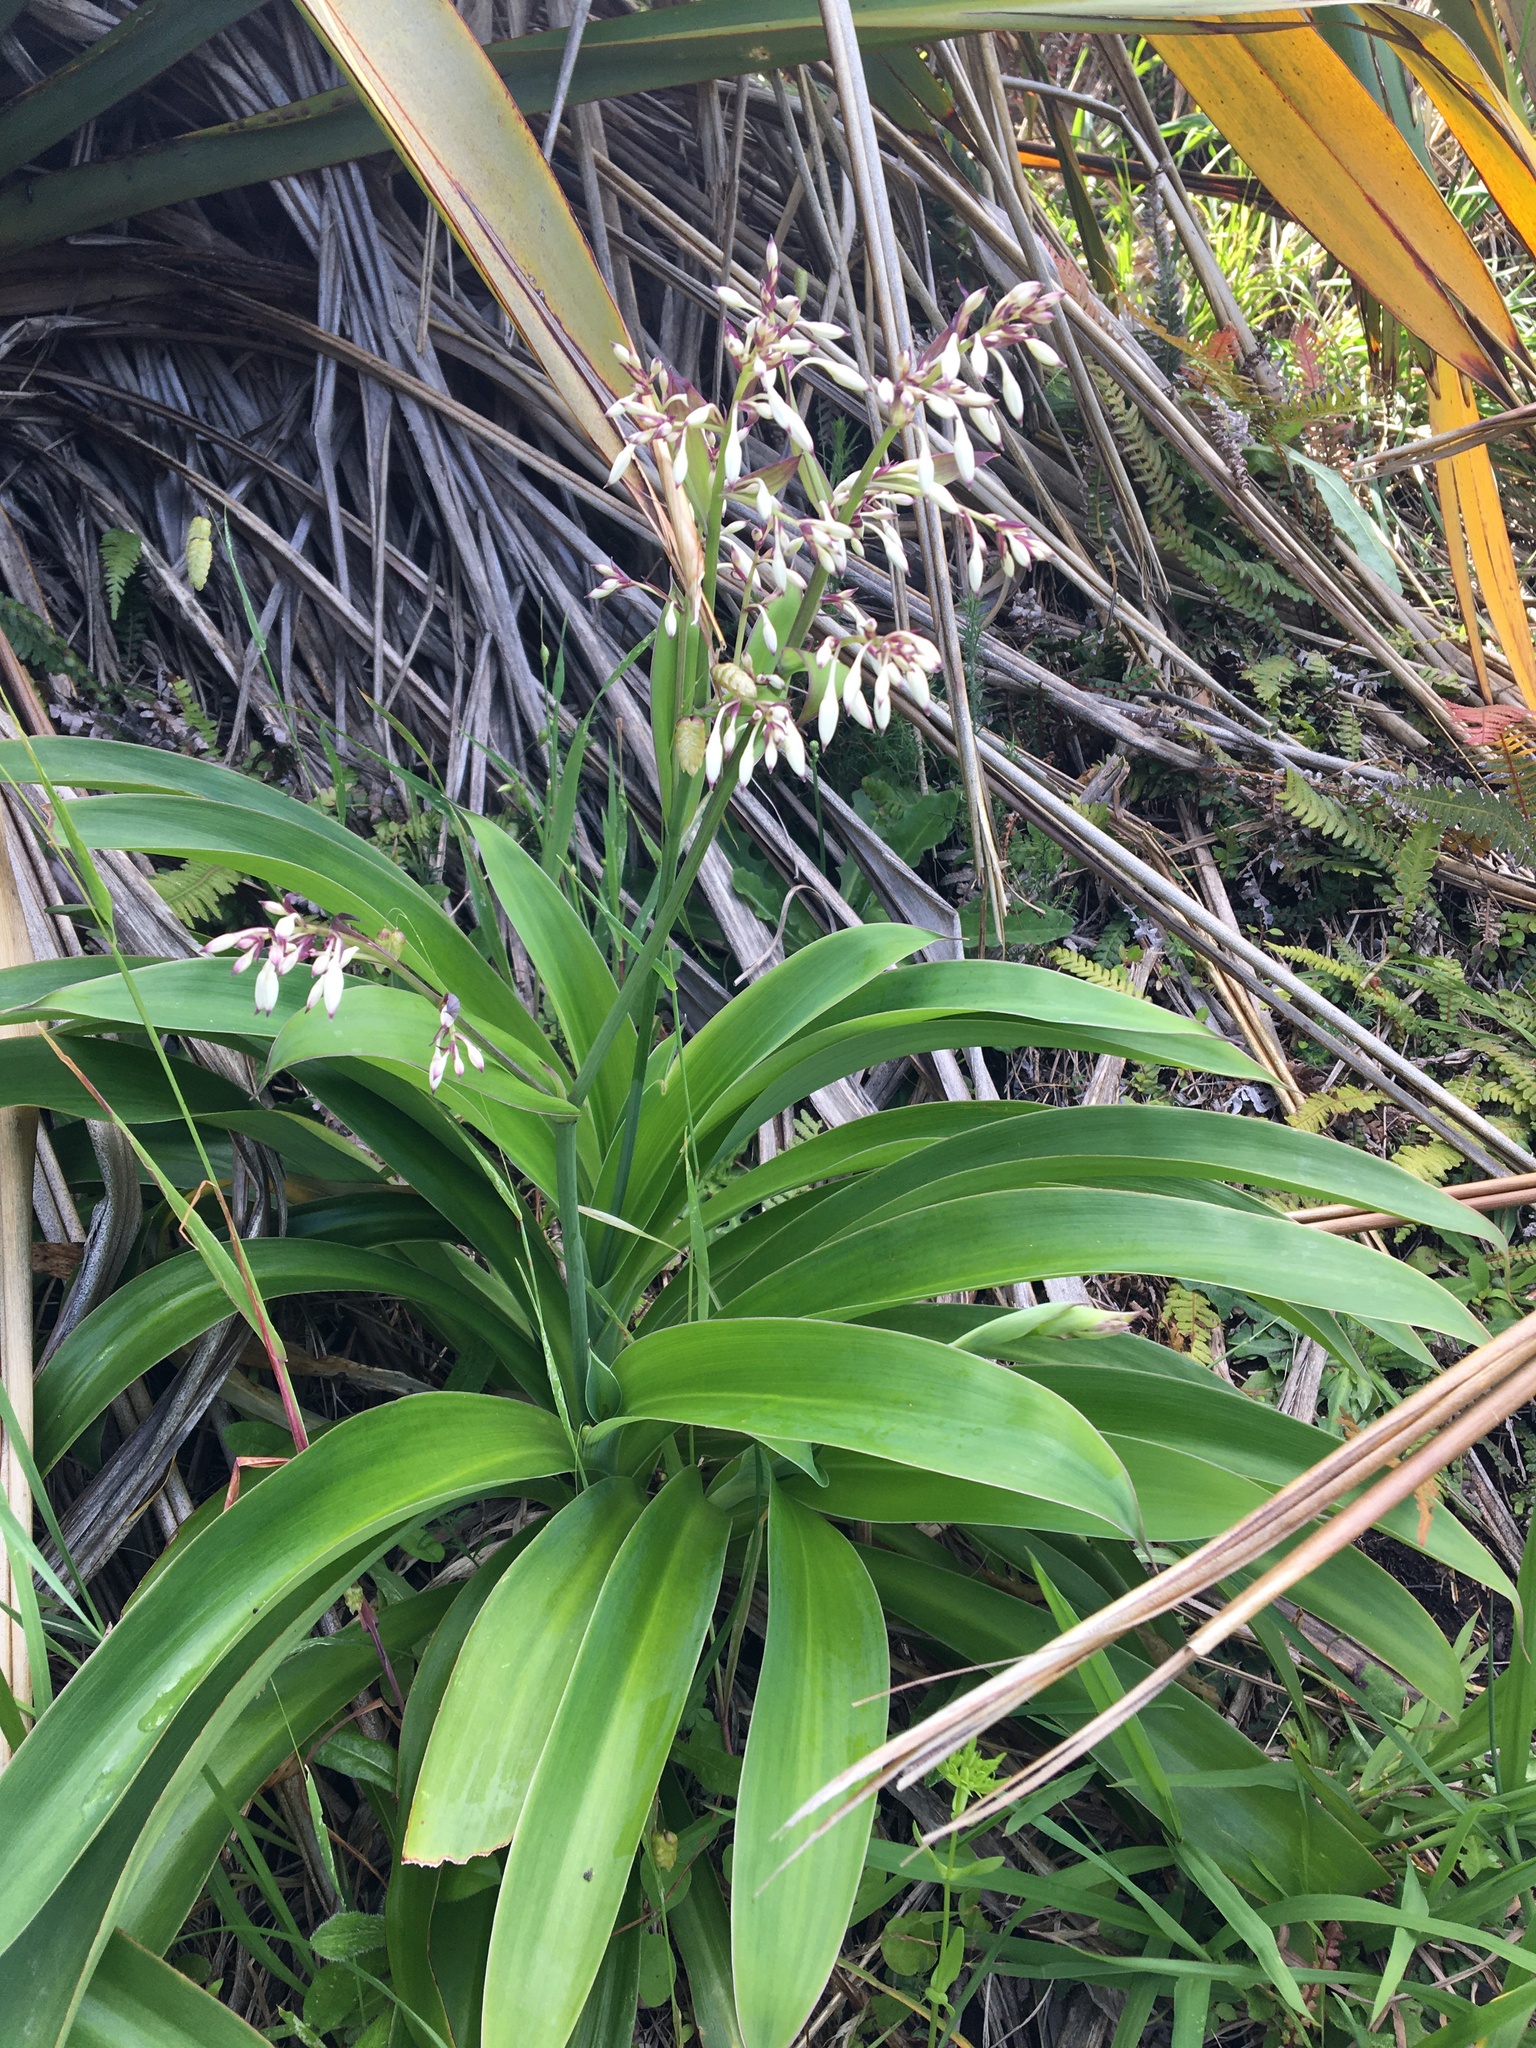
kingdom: Plantae
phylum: Tracheophyta
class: Liliopsida
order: Asparagales
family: Asparagaceae
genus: Arthropodium
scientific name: Arthropodium cirratum
